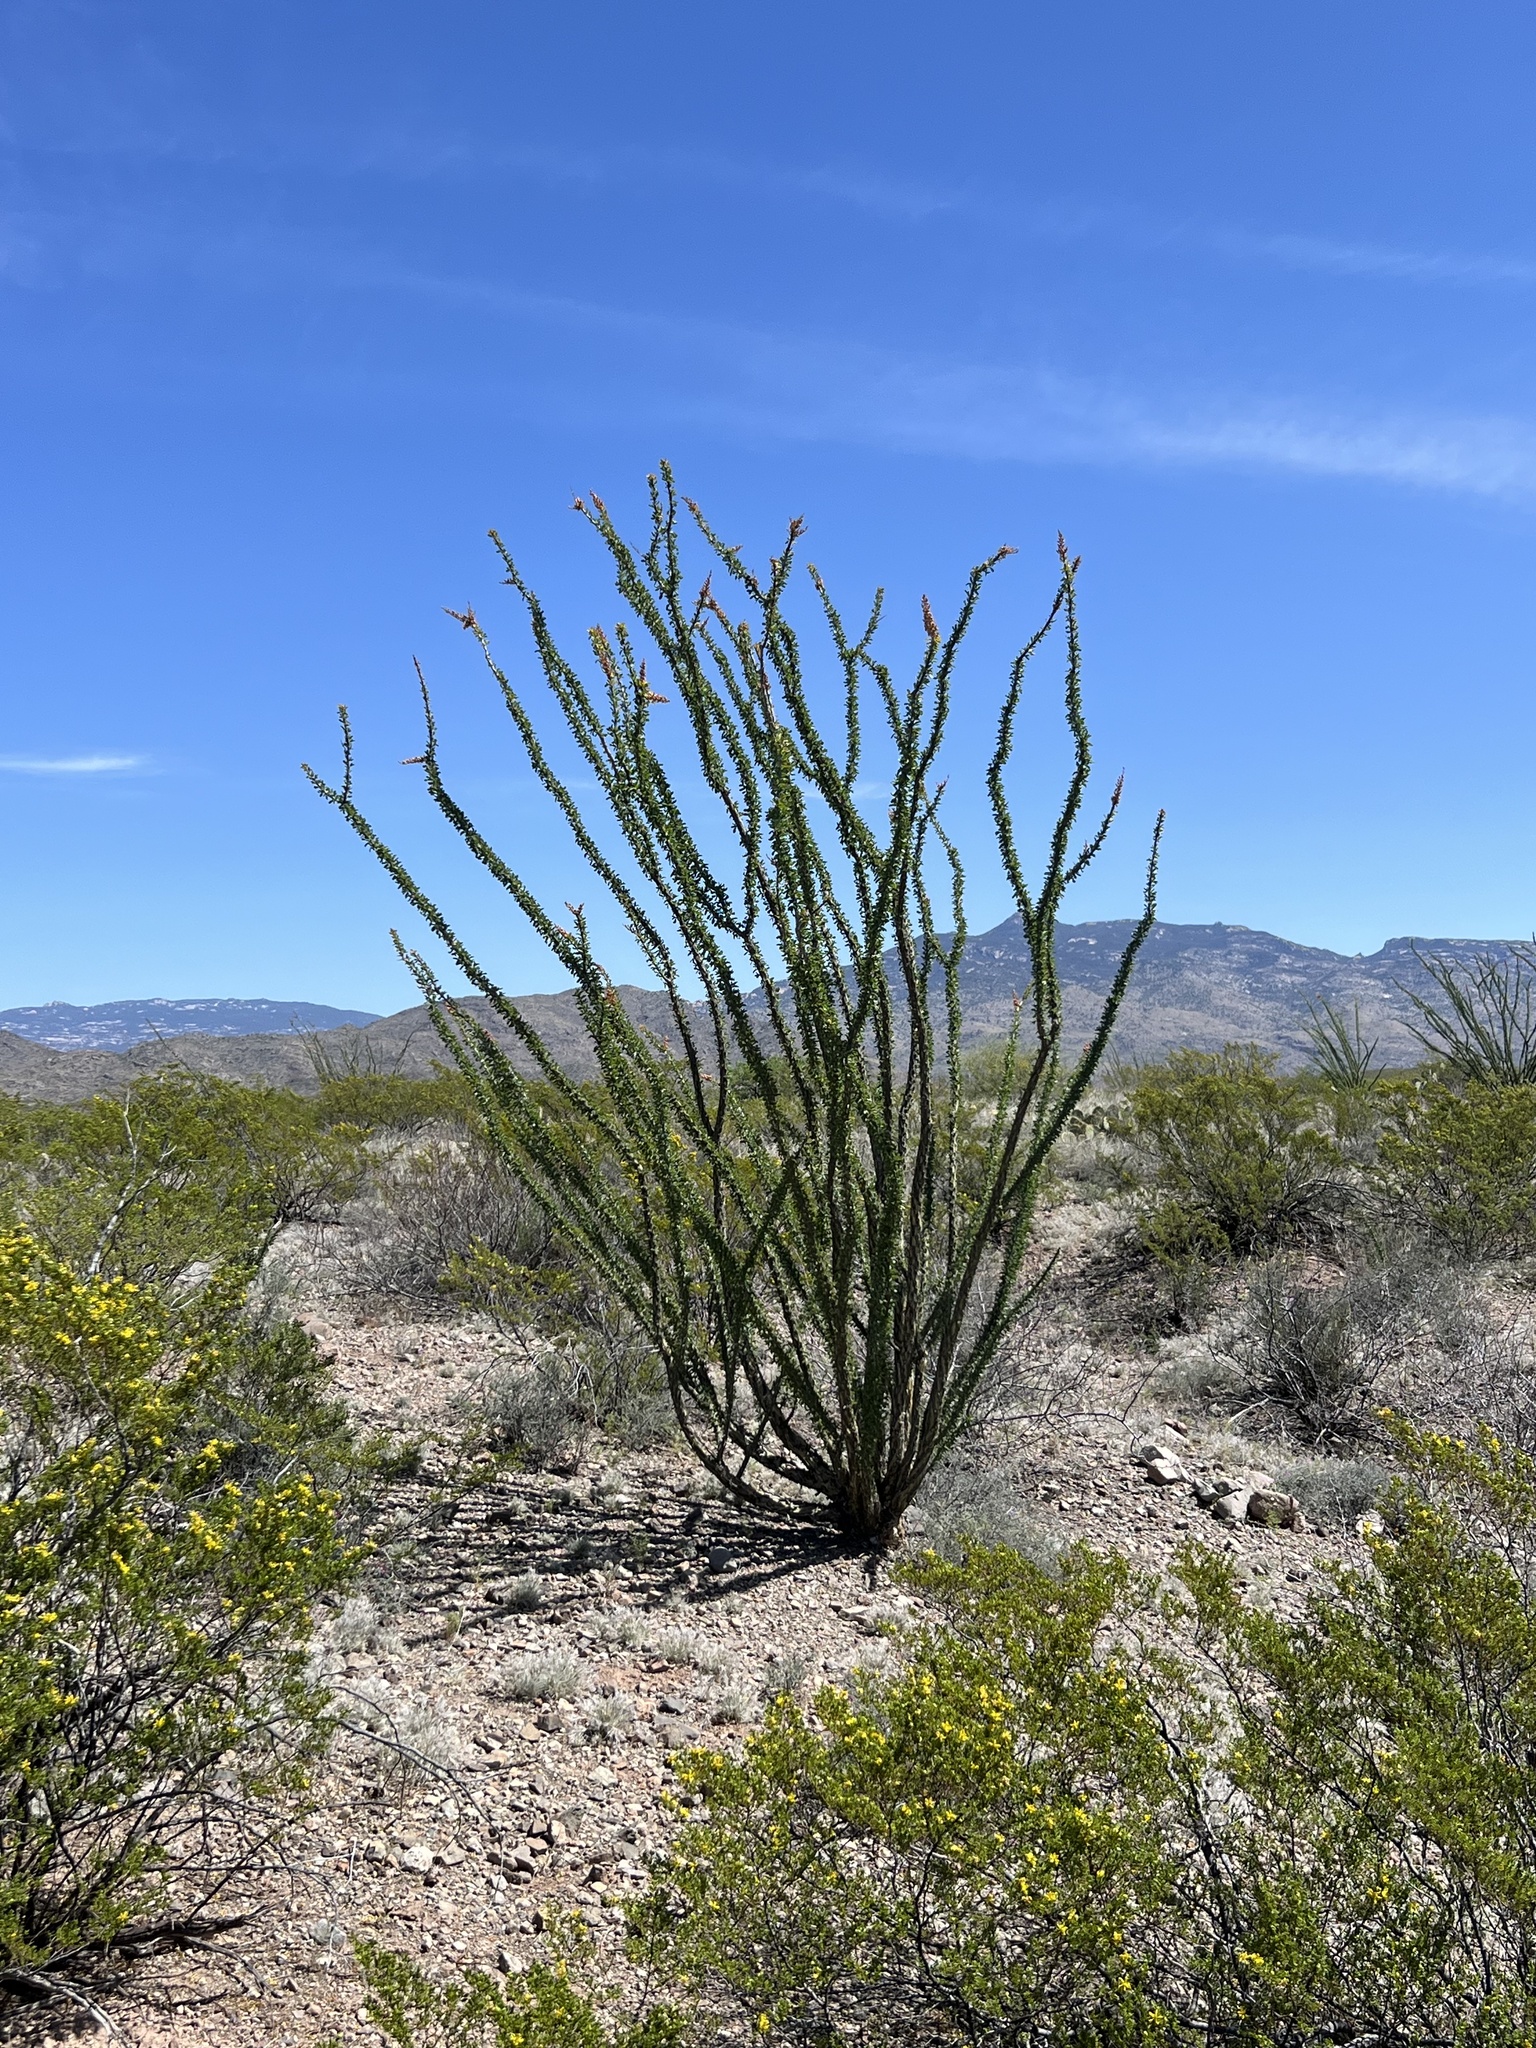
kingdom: Plantae
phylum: Tracheophyta
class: Magnoliopsida
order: Ericales
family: Fouquieriaceae
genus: Fouquieria
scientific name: Fouquieria splendens
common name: Vine-cactus
